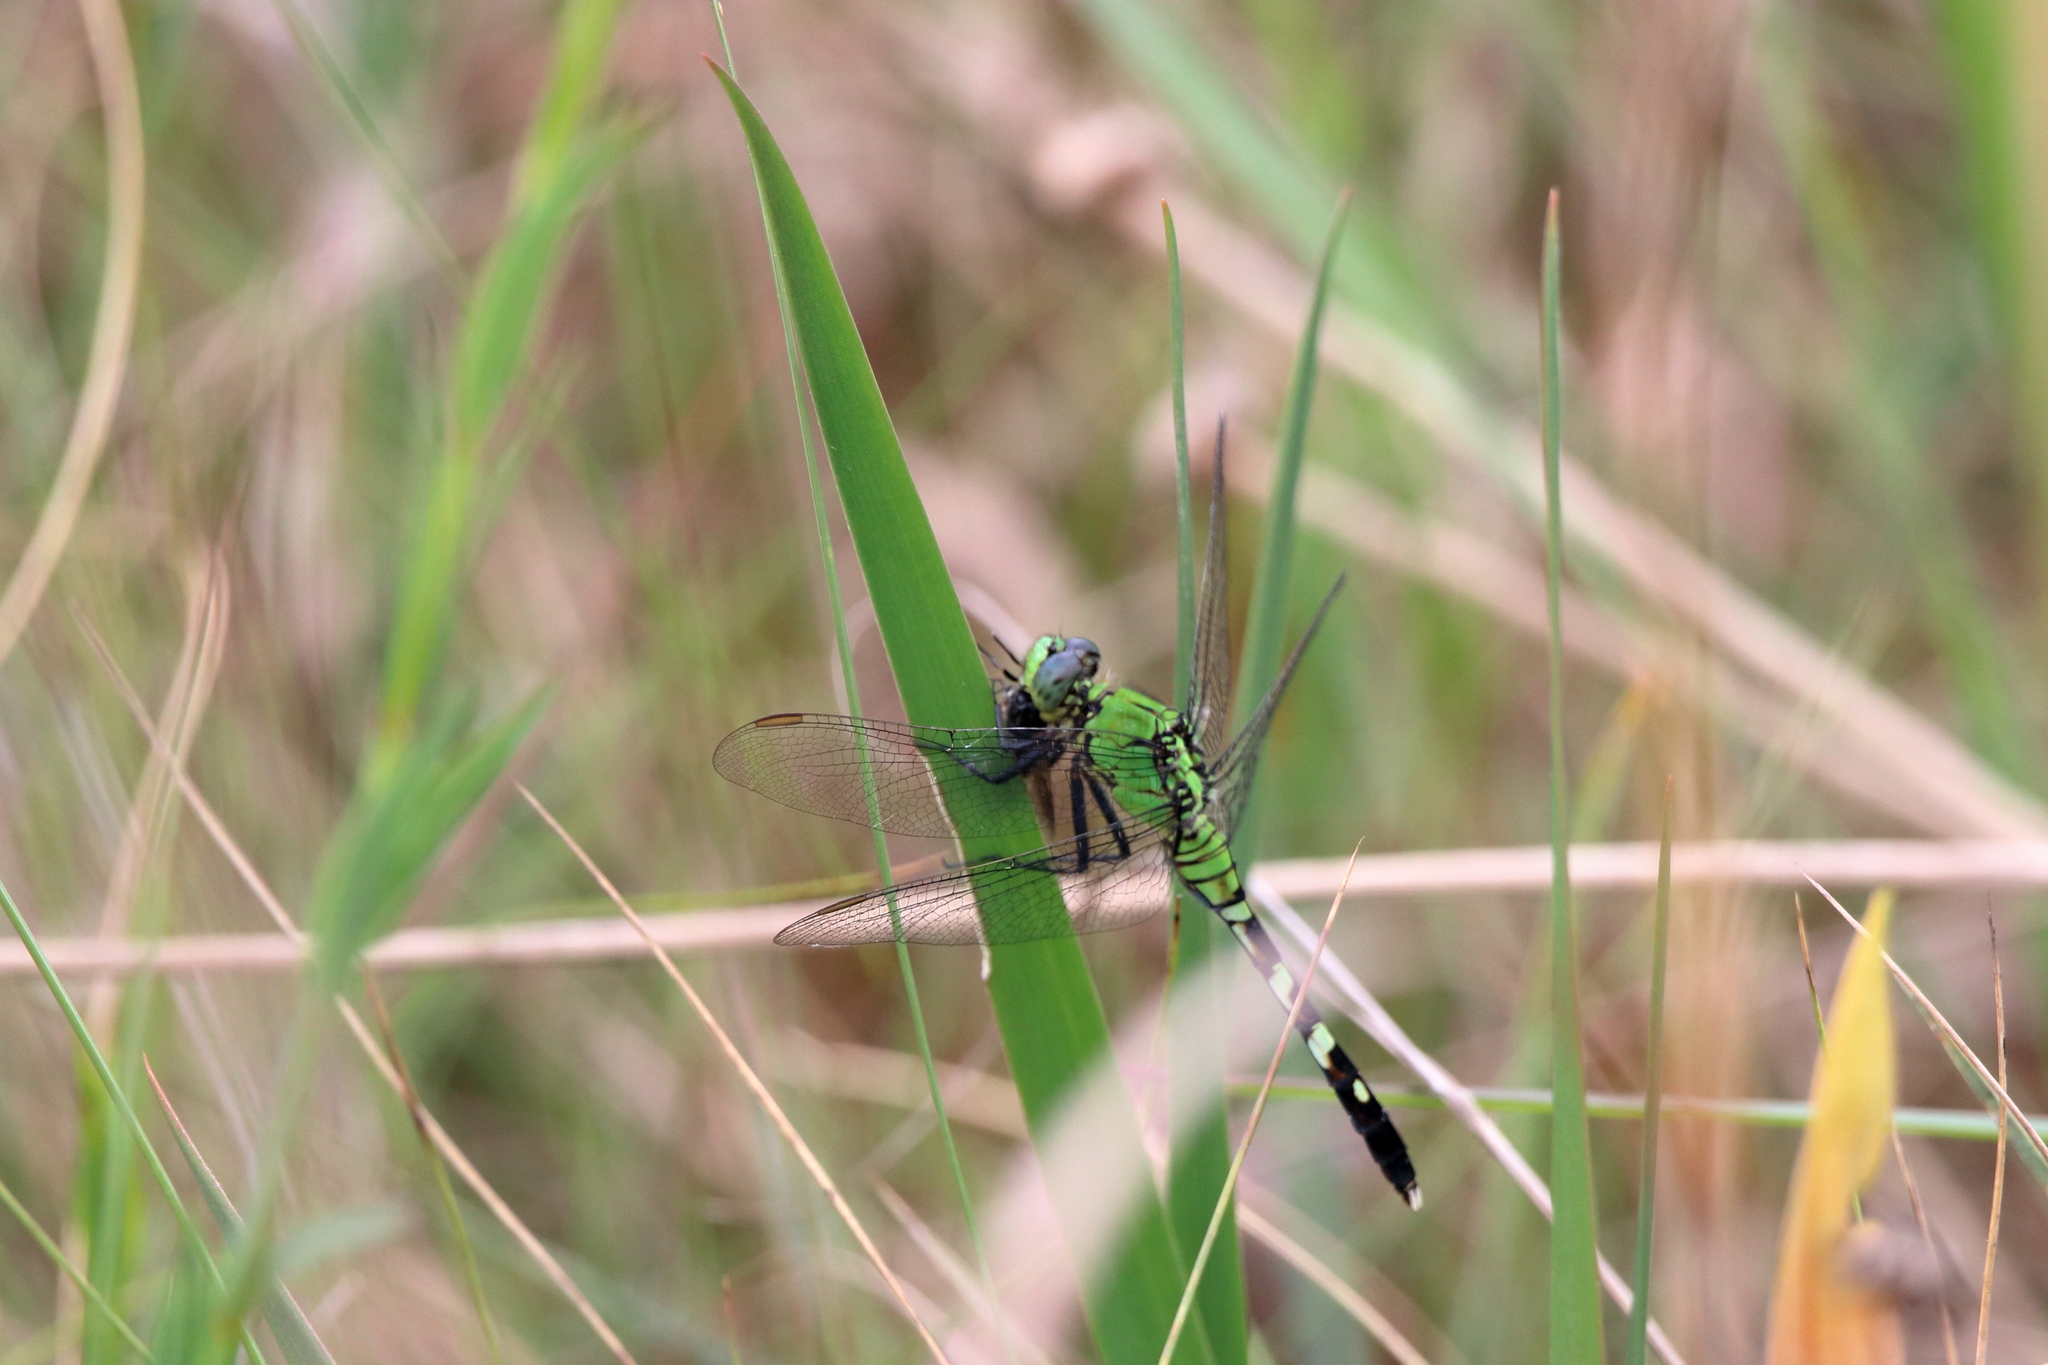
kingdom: Animalia
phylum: Arthropoda
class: Insecta
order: Odonata
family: Libellulidae
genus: Erythemis
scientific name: Erythemis simplicicollis
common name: Eastern pondhawk
